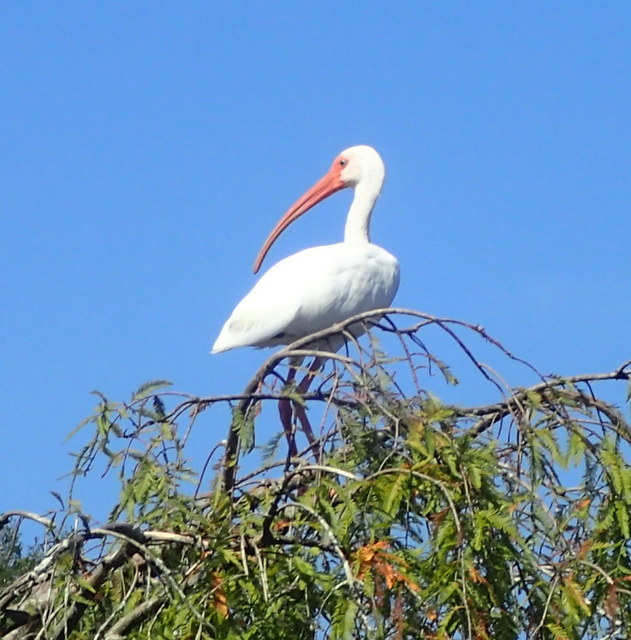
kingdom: Animalia
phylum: Chordata
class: Aves
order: Pelecaniformes
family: Threskiornithidae
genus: Eudocimus
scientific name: Eudocimus albus
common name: White ibis
